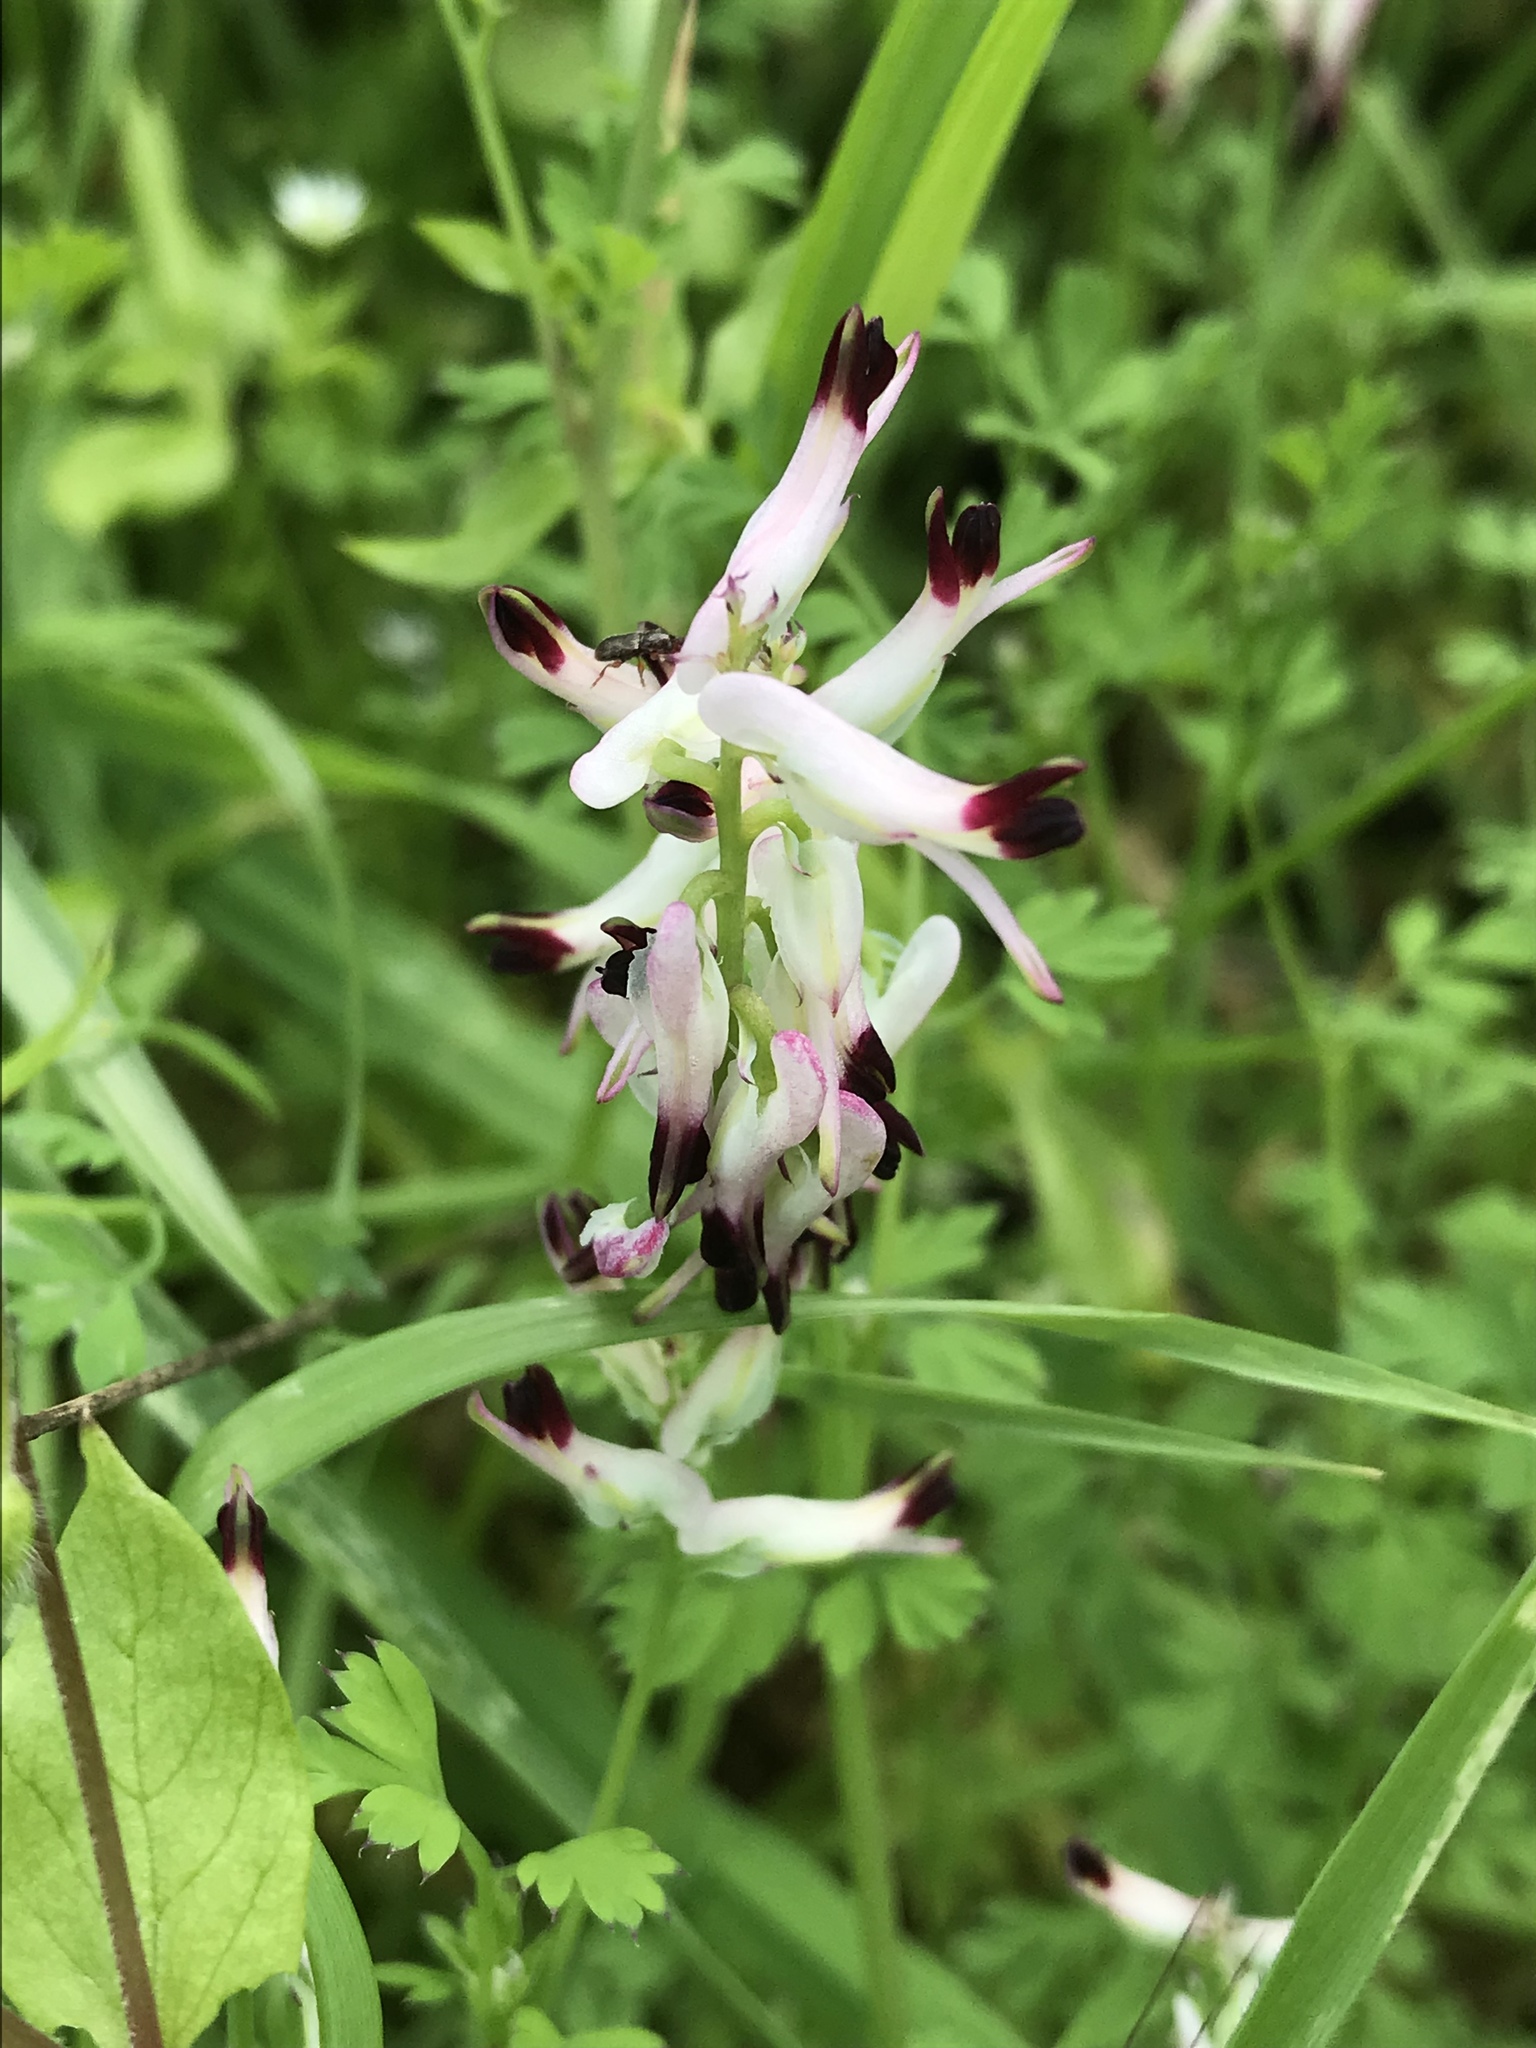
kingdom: Plantae
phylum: Tracheophyta
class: Magnoliopsida
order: Ranunculales
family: Papaveraceae
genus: Fumaria
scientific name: Fumaria capreolata
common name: White ramping-fumitory
